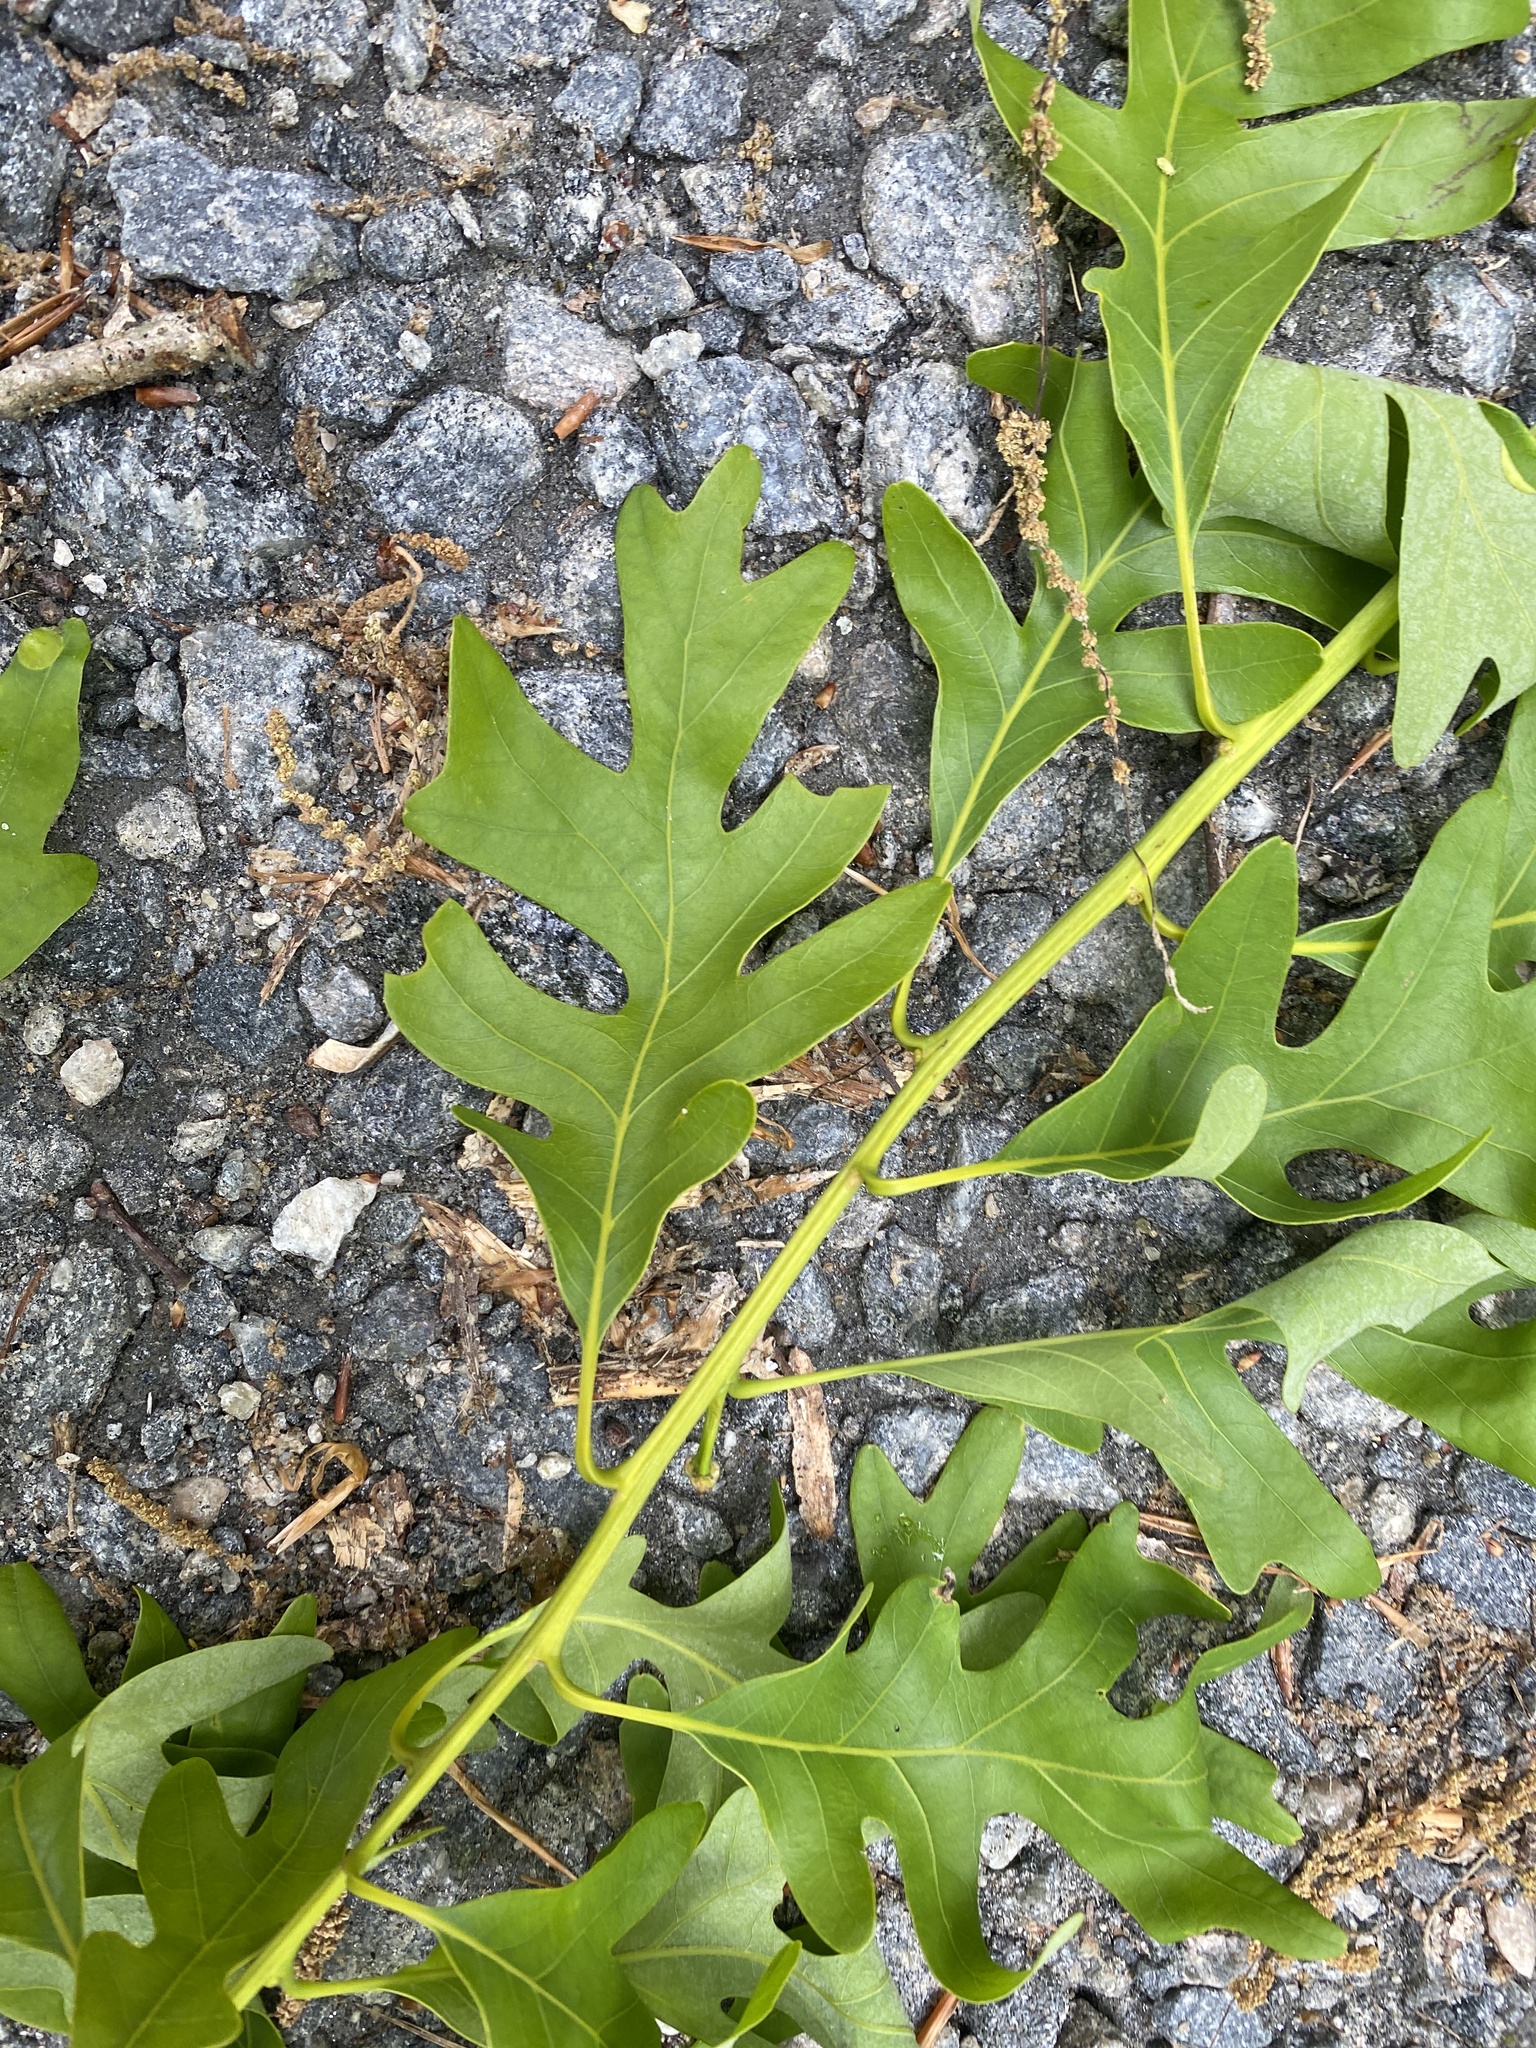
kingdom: Plantae
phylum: Tracheophyta
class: Magnoliopsida
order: Fagales
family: Fagaceae
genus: Quercus
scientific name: Quercus alba
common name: White oak
